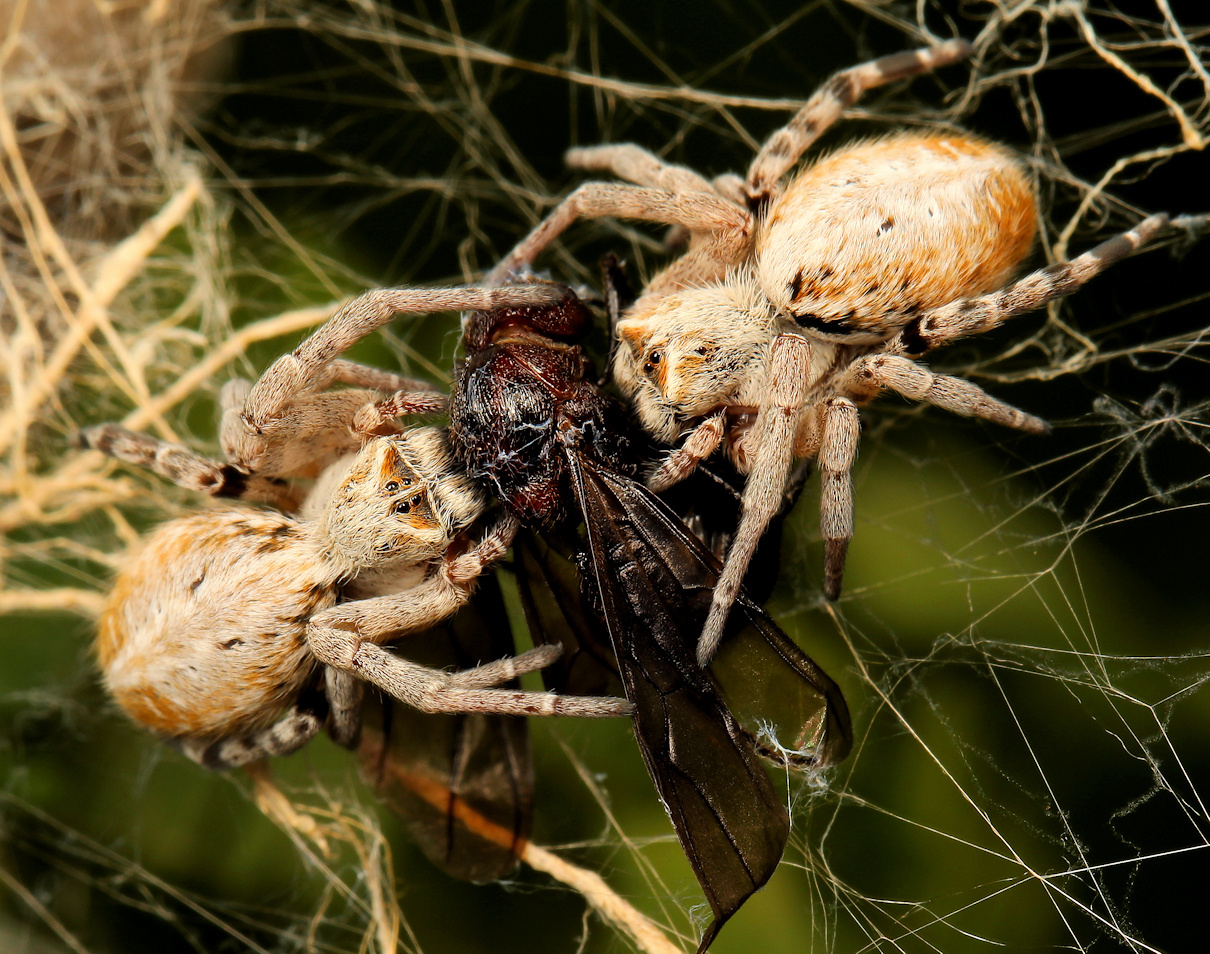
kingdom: Animalia
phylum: Arthropoda
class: Insecta
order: Hymenoptera
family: Formicidae
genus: Myrmicaria
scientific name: Myrmicaria natalensis
